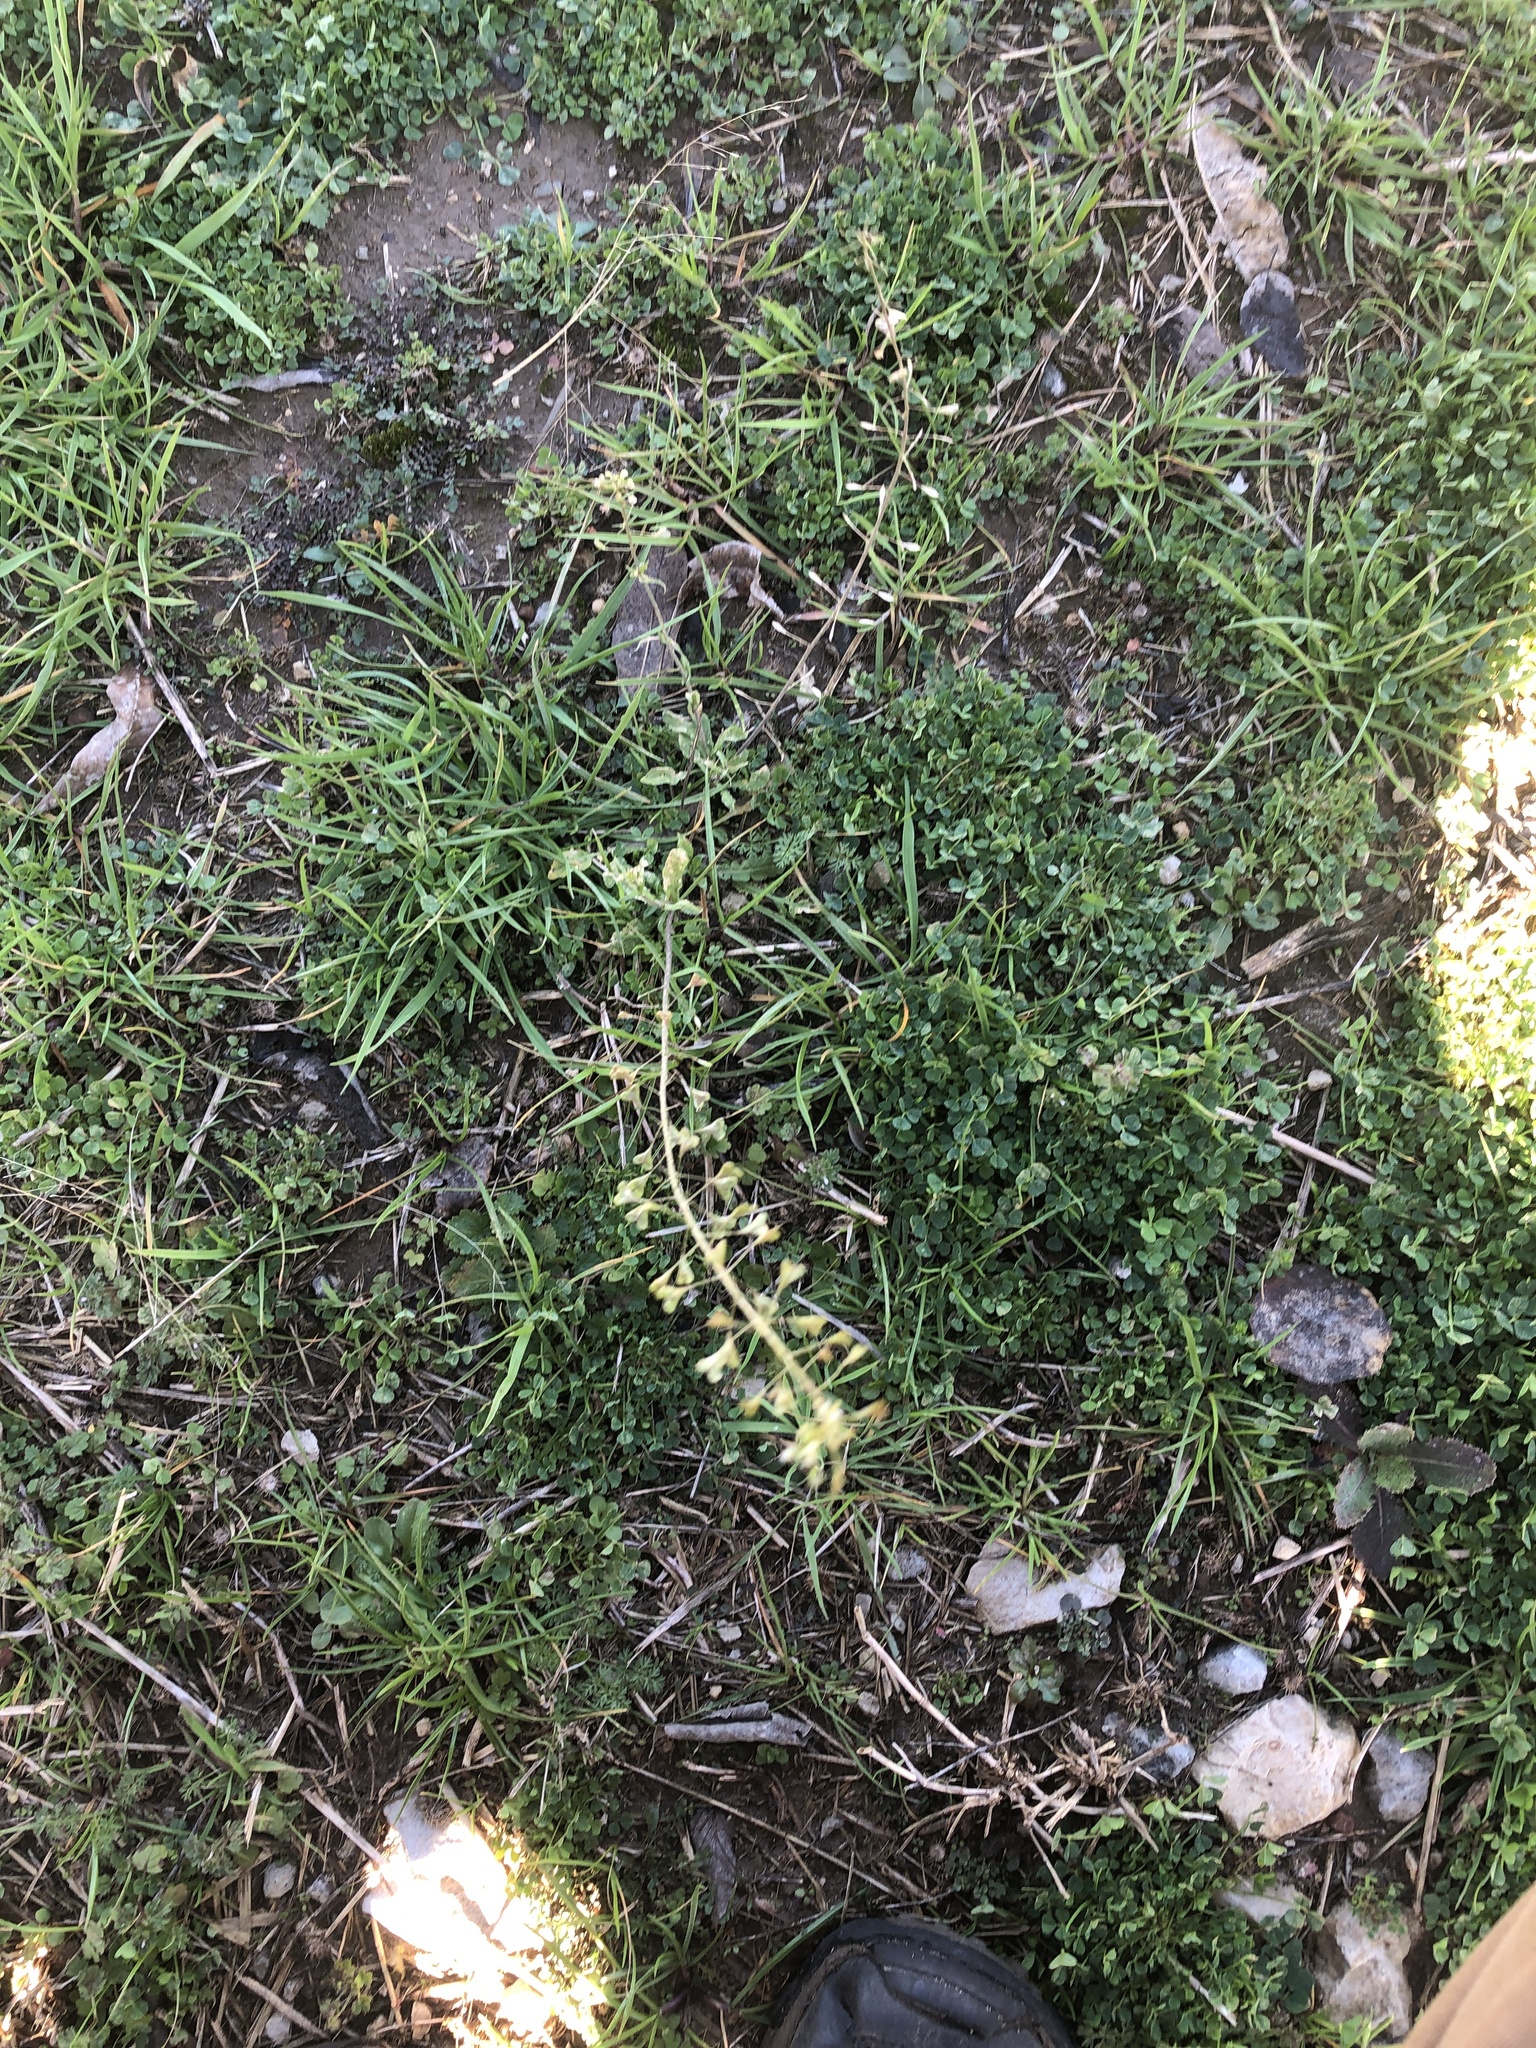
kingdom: Plantae
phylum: Tracheophyta
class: Magnoliopsida
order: Brassicales
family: Brassicaceae
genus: Capsella
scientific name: Capsella bursa-pastoris
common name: Shepherd's purse
